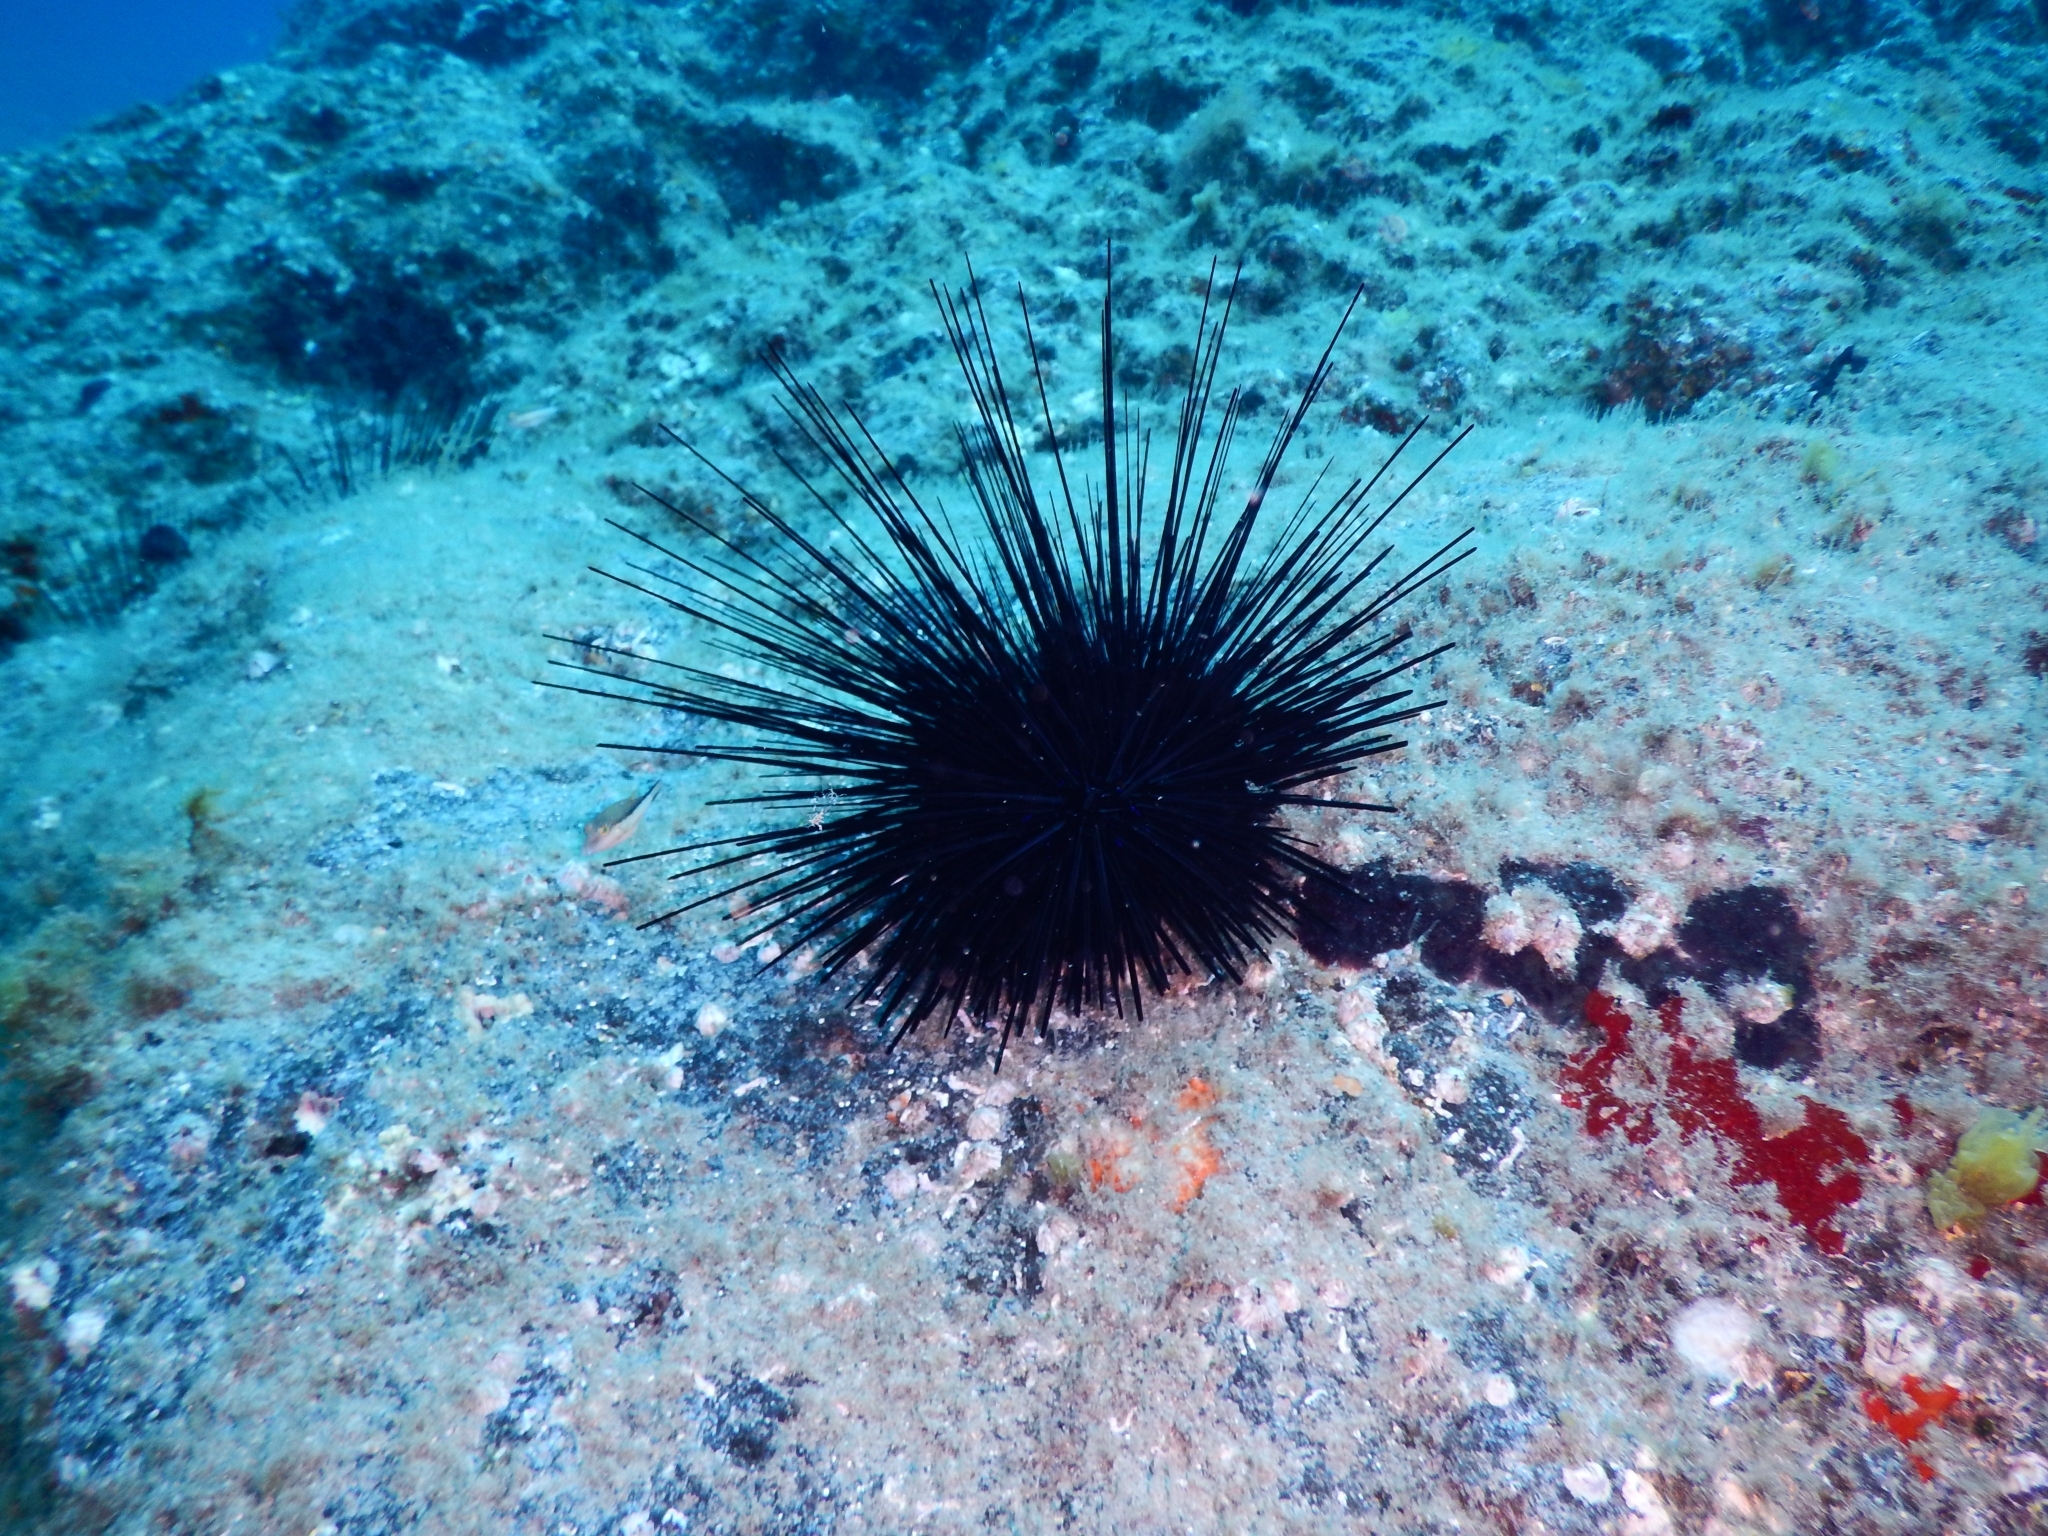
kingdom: Animalia
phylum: Echinodermata
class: Echinoidea
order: Diadematoida
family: Diadematidae
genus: Diadema
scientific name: Diadema africanum
